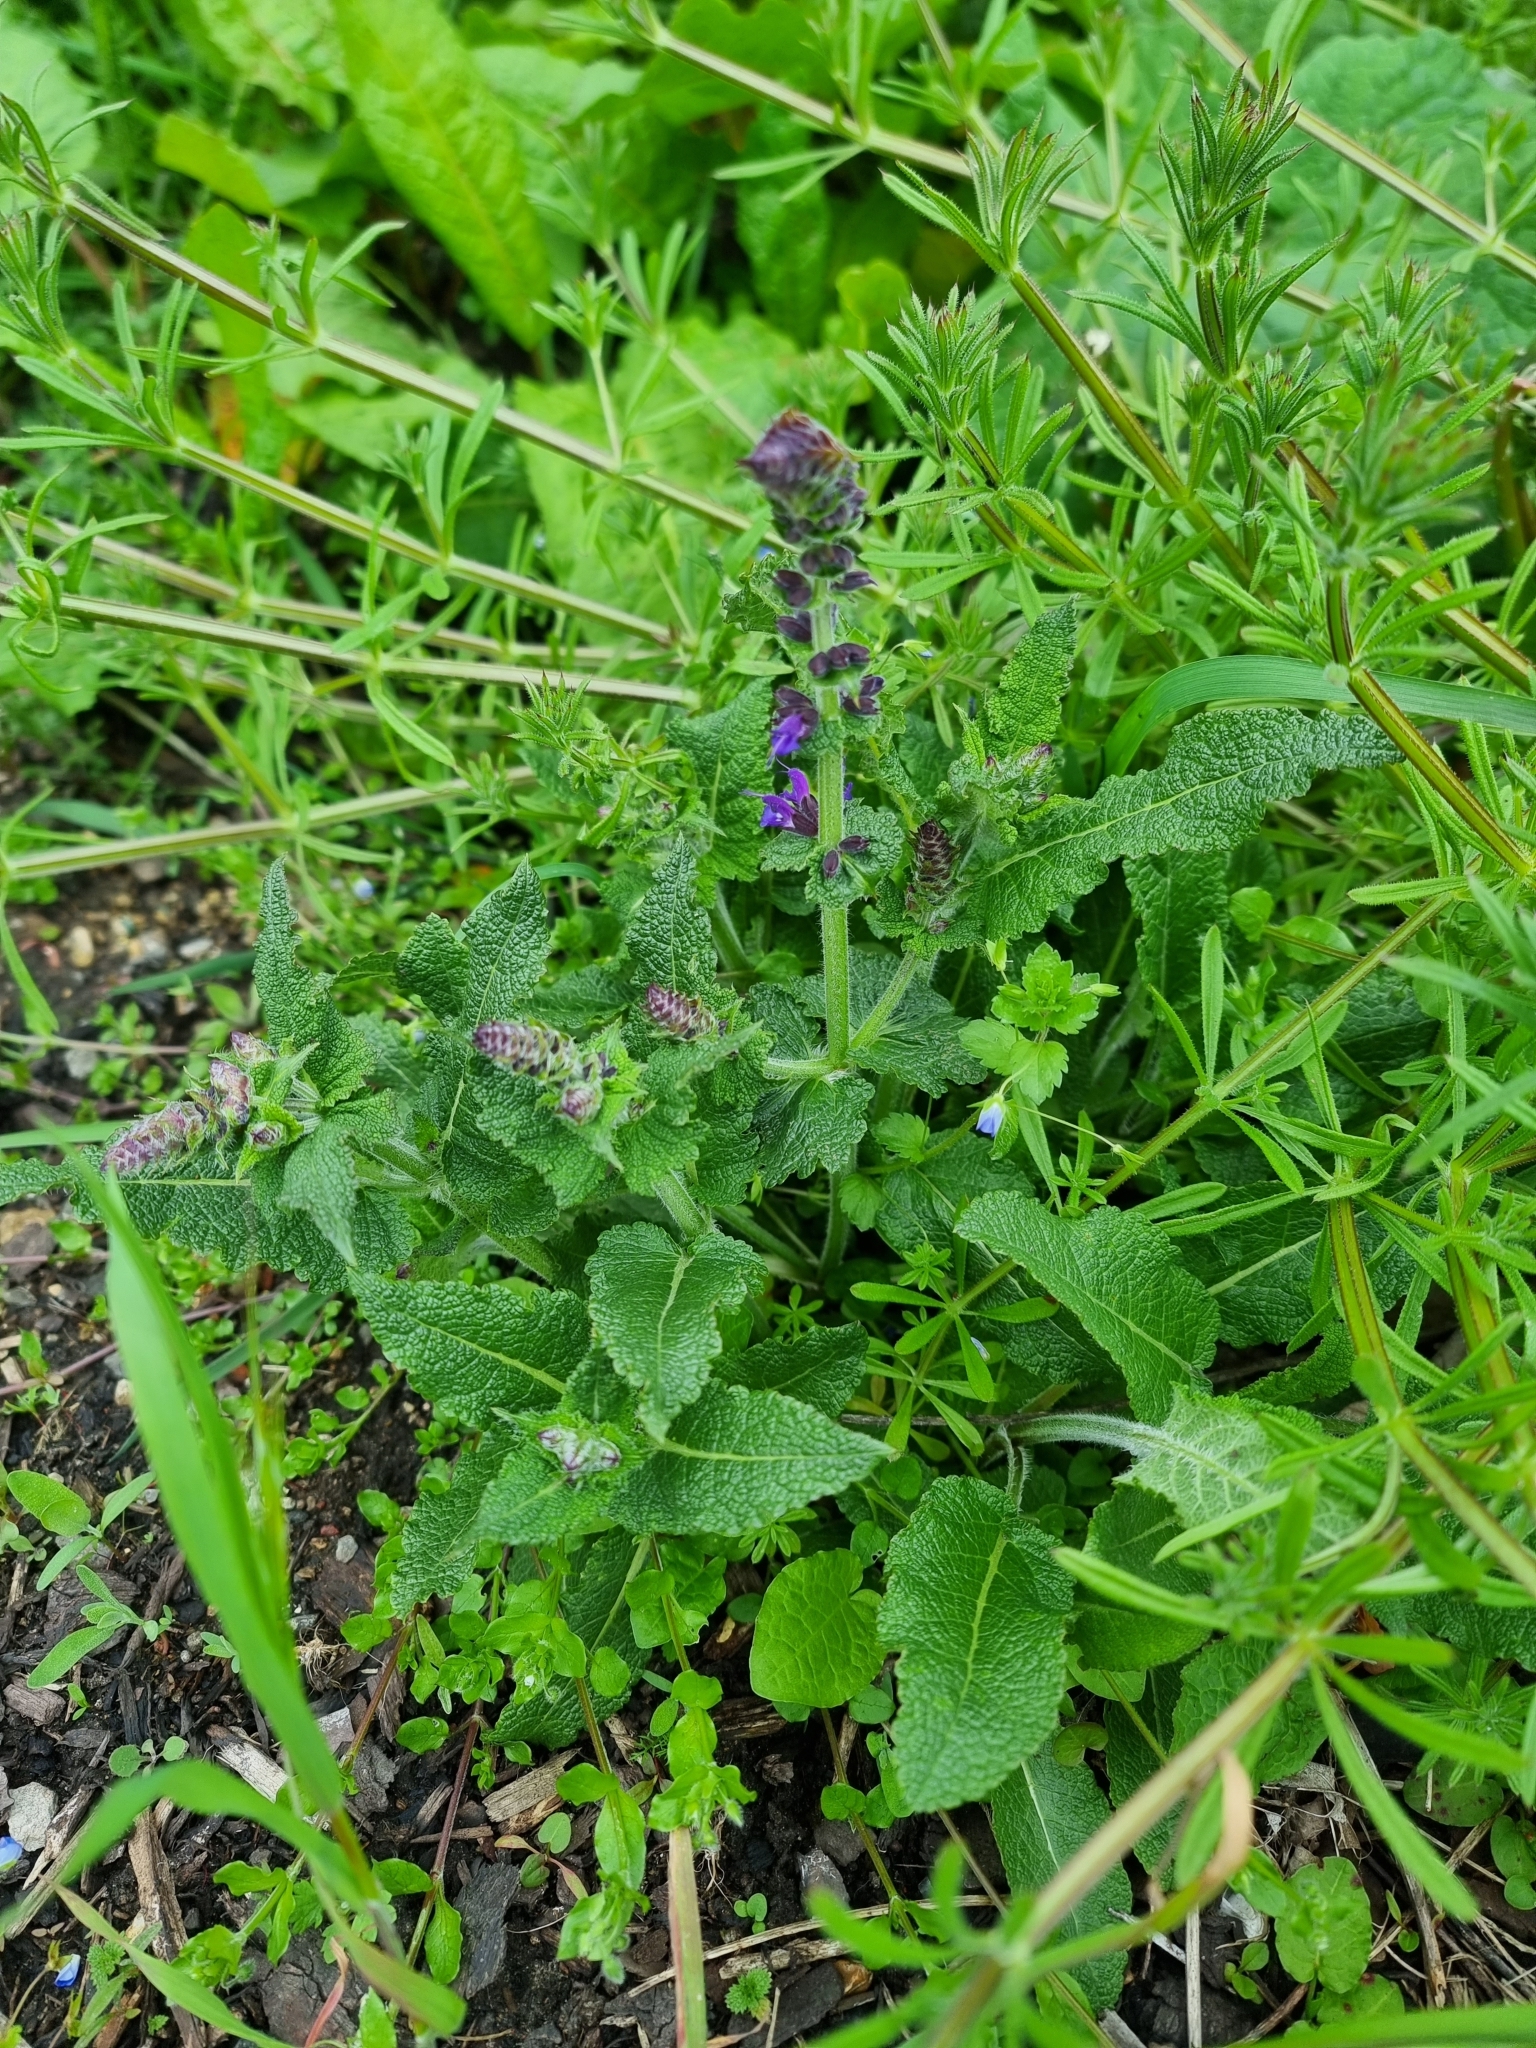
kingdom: Plantae
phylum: Tracheophyta
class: Magnoliopsida
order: Lamiales
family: Lamiaceae
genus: Salvia
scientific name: Salvia verbenaca
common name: Wild clary
